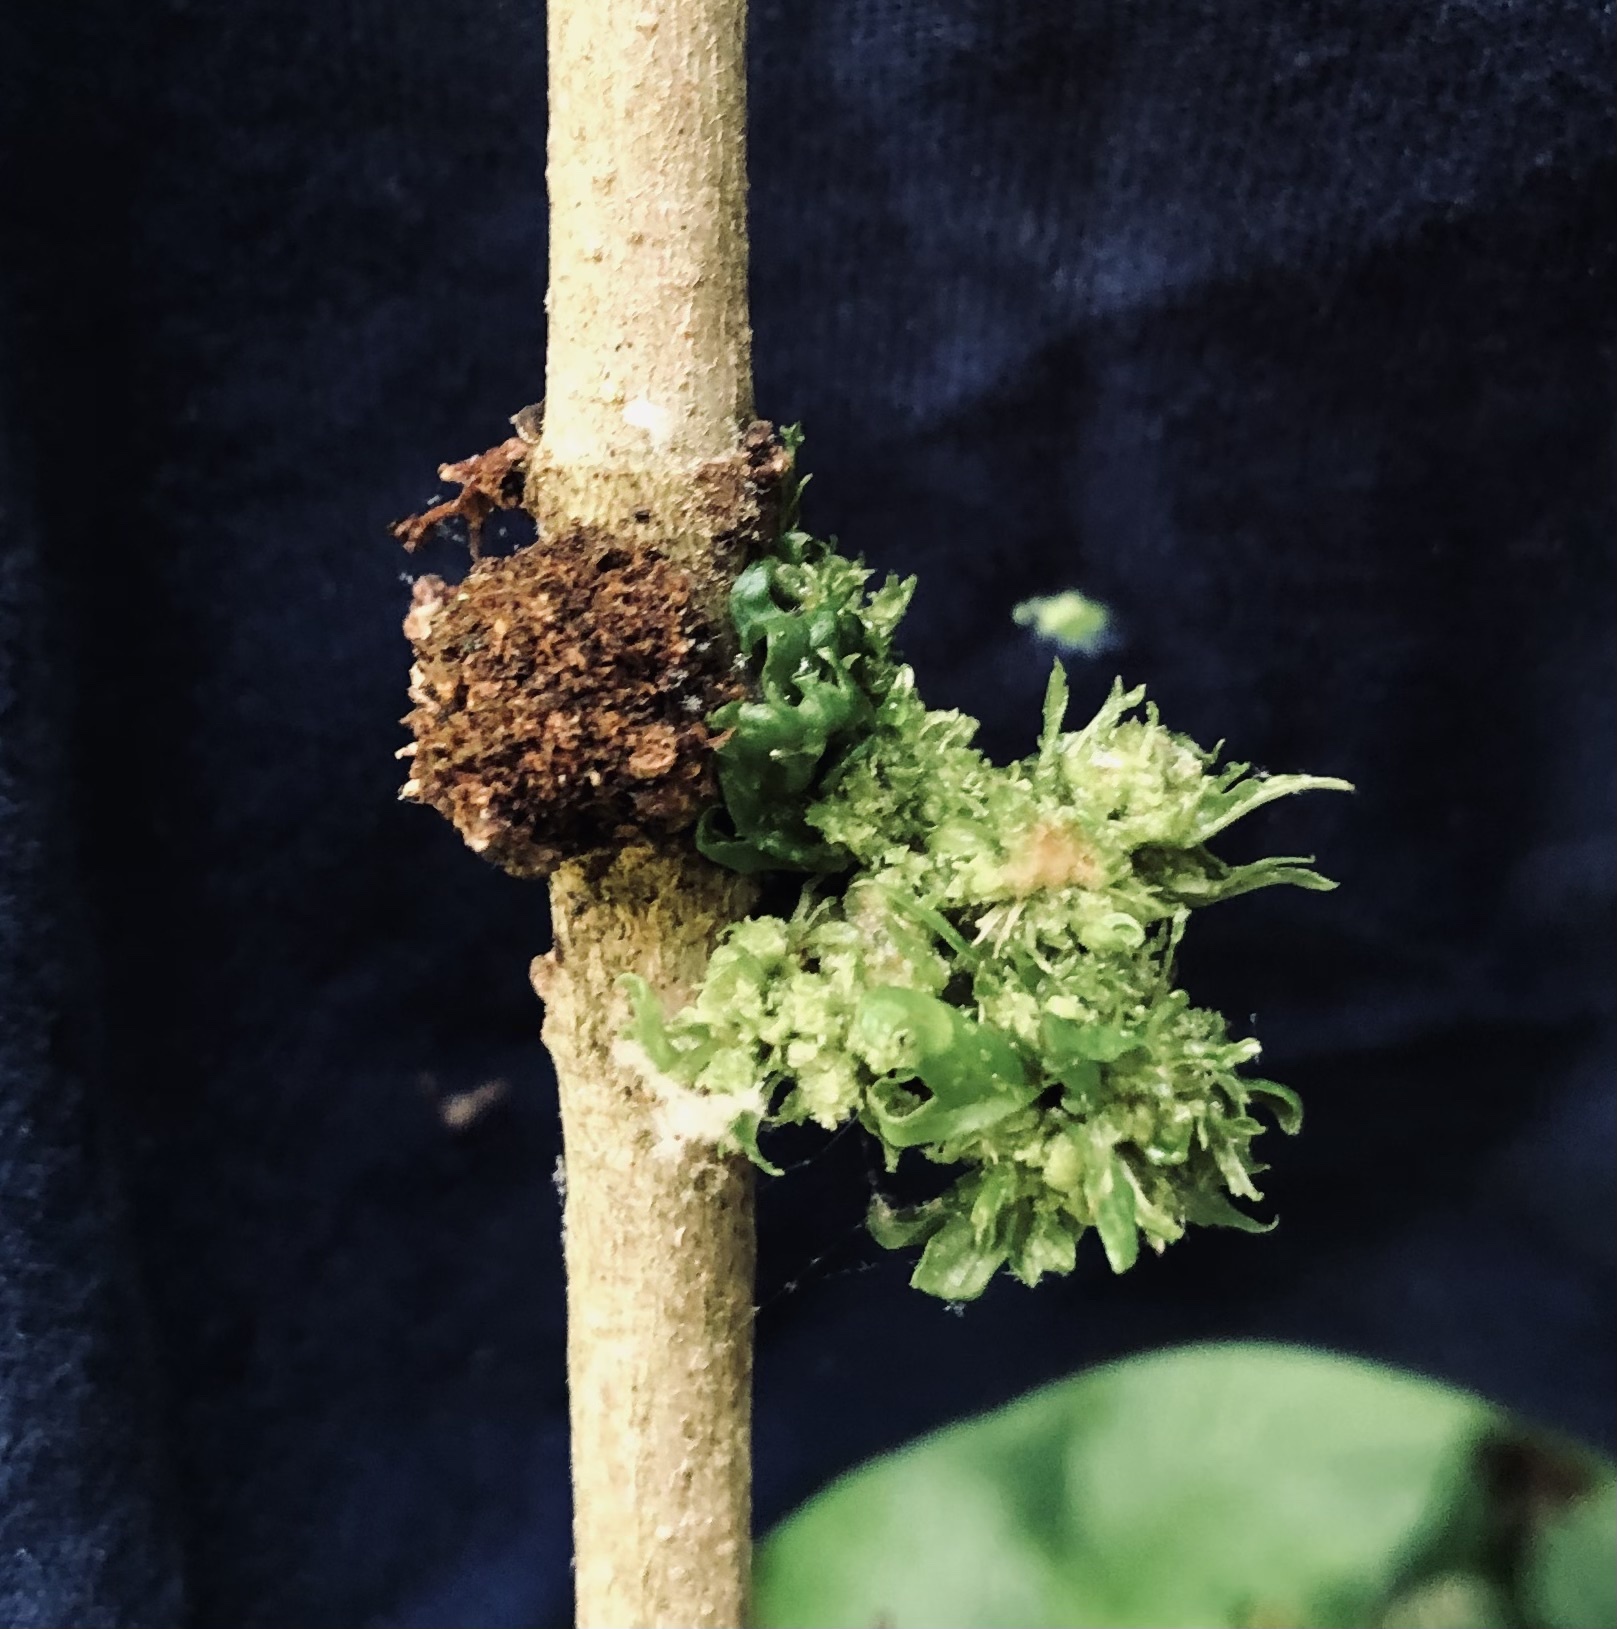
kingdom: Bacteria
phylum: Firmicutes
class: Bacilli
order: Acholeplasmatales
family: Acholeplasmataceae
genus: Phytoplasma
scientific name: Phytoplasma
